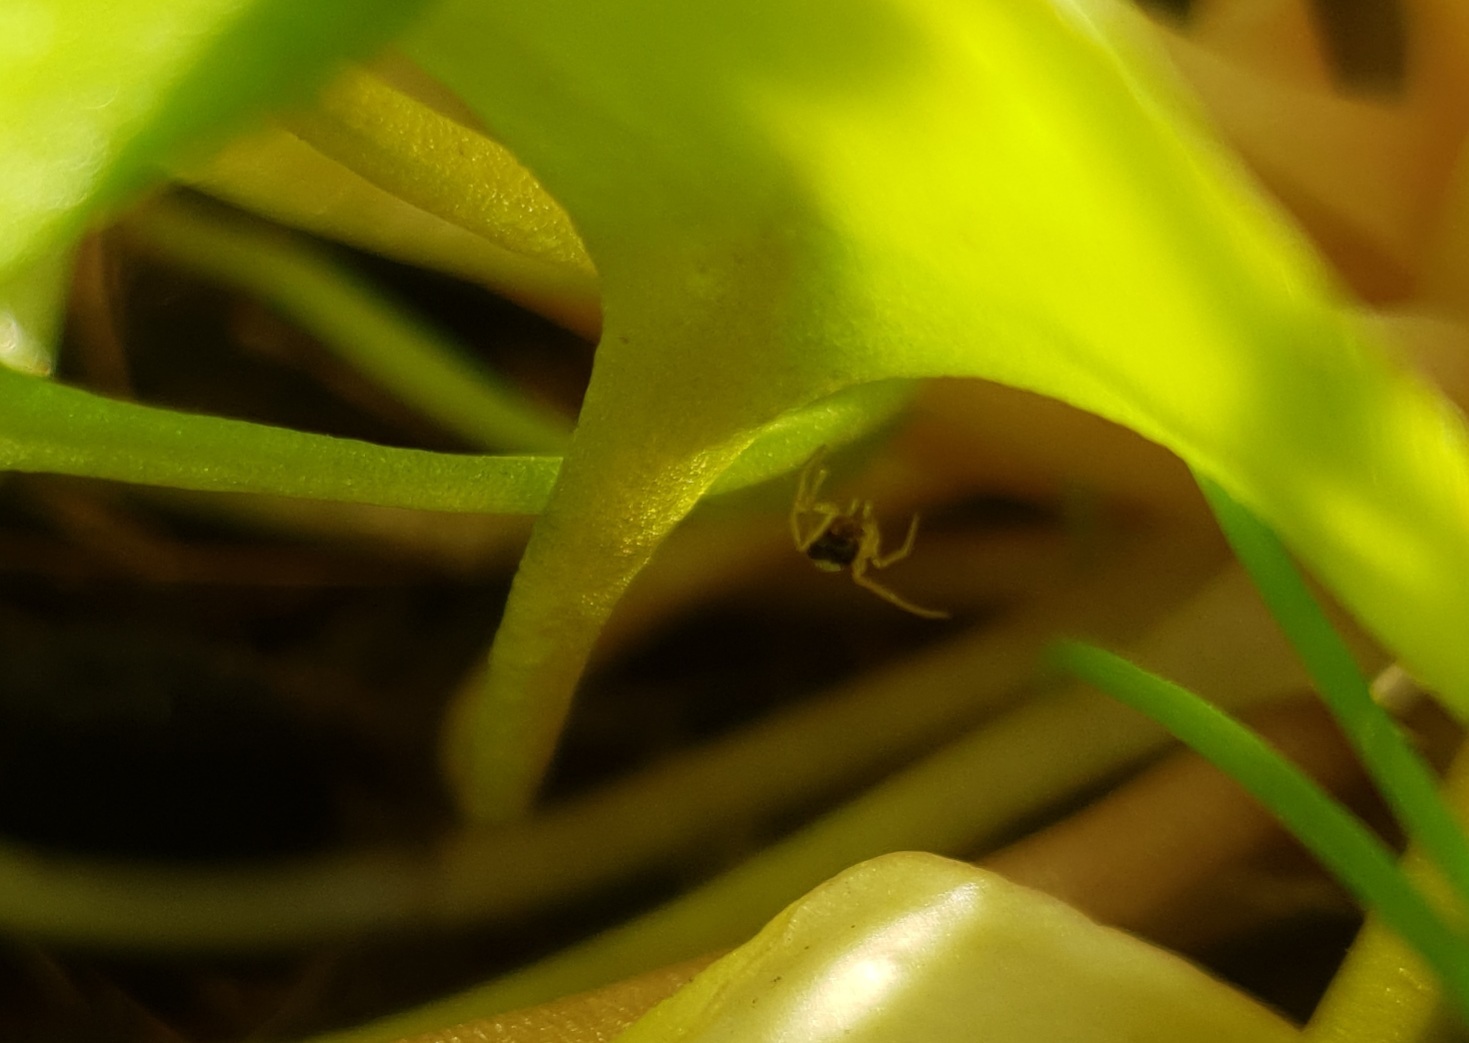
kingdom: Animalia
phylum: Arthropoda
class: Arachnida
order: Araneae
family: Theridiidae
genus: Neottiura
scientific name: Neottiura bimaculata
